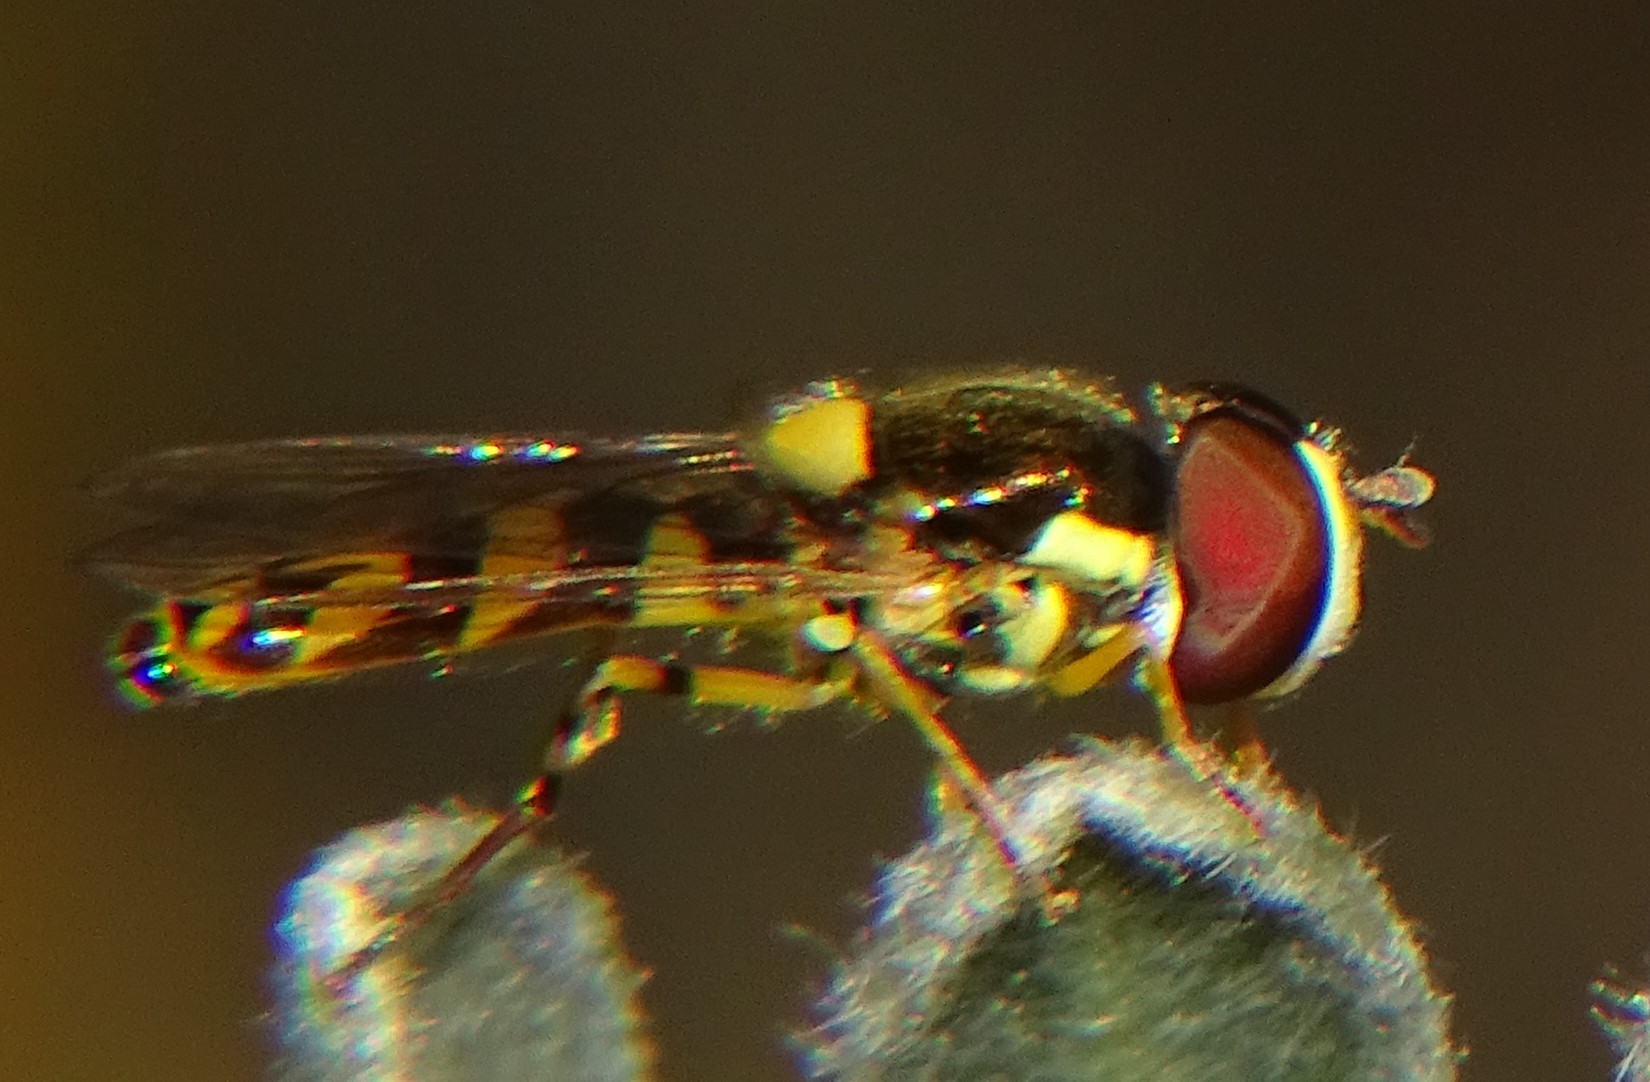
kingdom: Animalia
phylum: Arthropoda
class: Insecta
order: Diptera
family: Syrphidae
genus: Allograpta
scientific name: Allograpta exotica
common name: Syrphid fly
